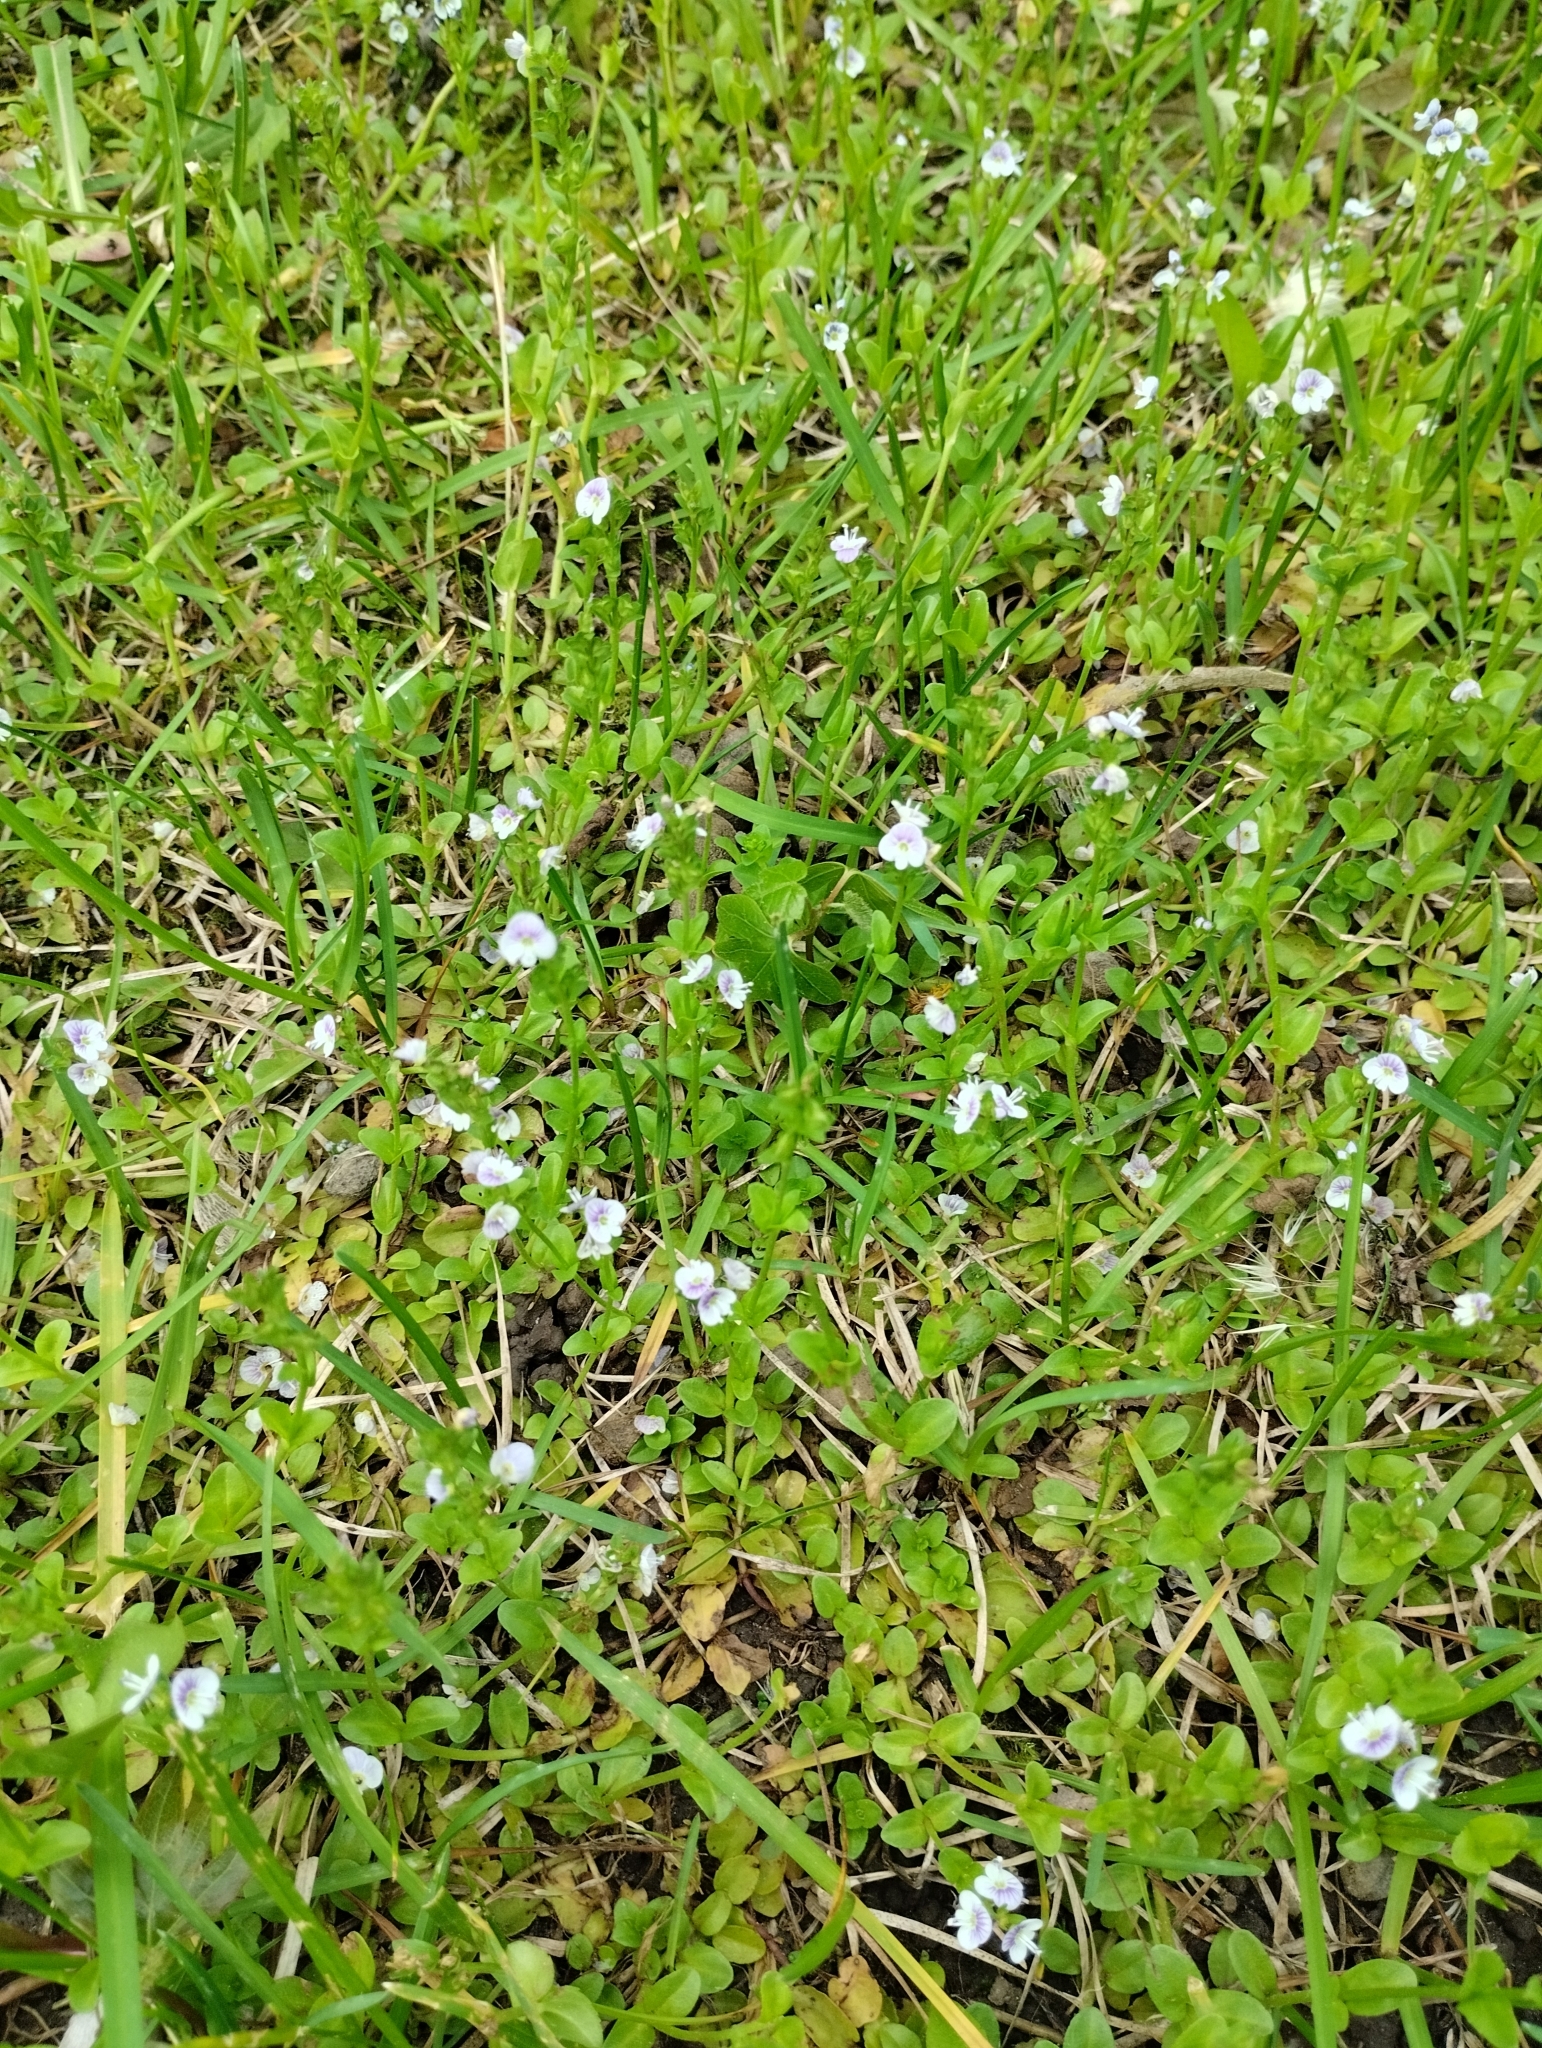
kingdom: Plantae
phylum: Tracheophyta
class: Magnoliopsida
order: Lamiales
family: Plantaginaceae
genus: Veronica
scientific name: Veronica serpyllifolia
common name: Thyme-leaved speedwell
